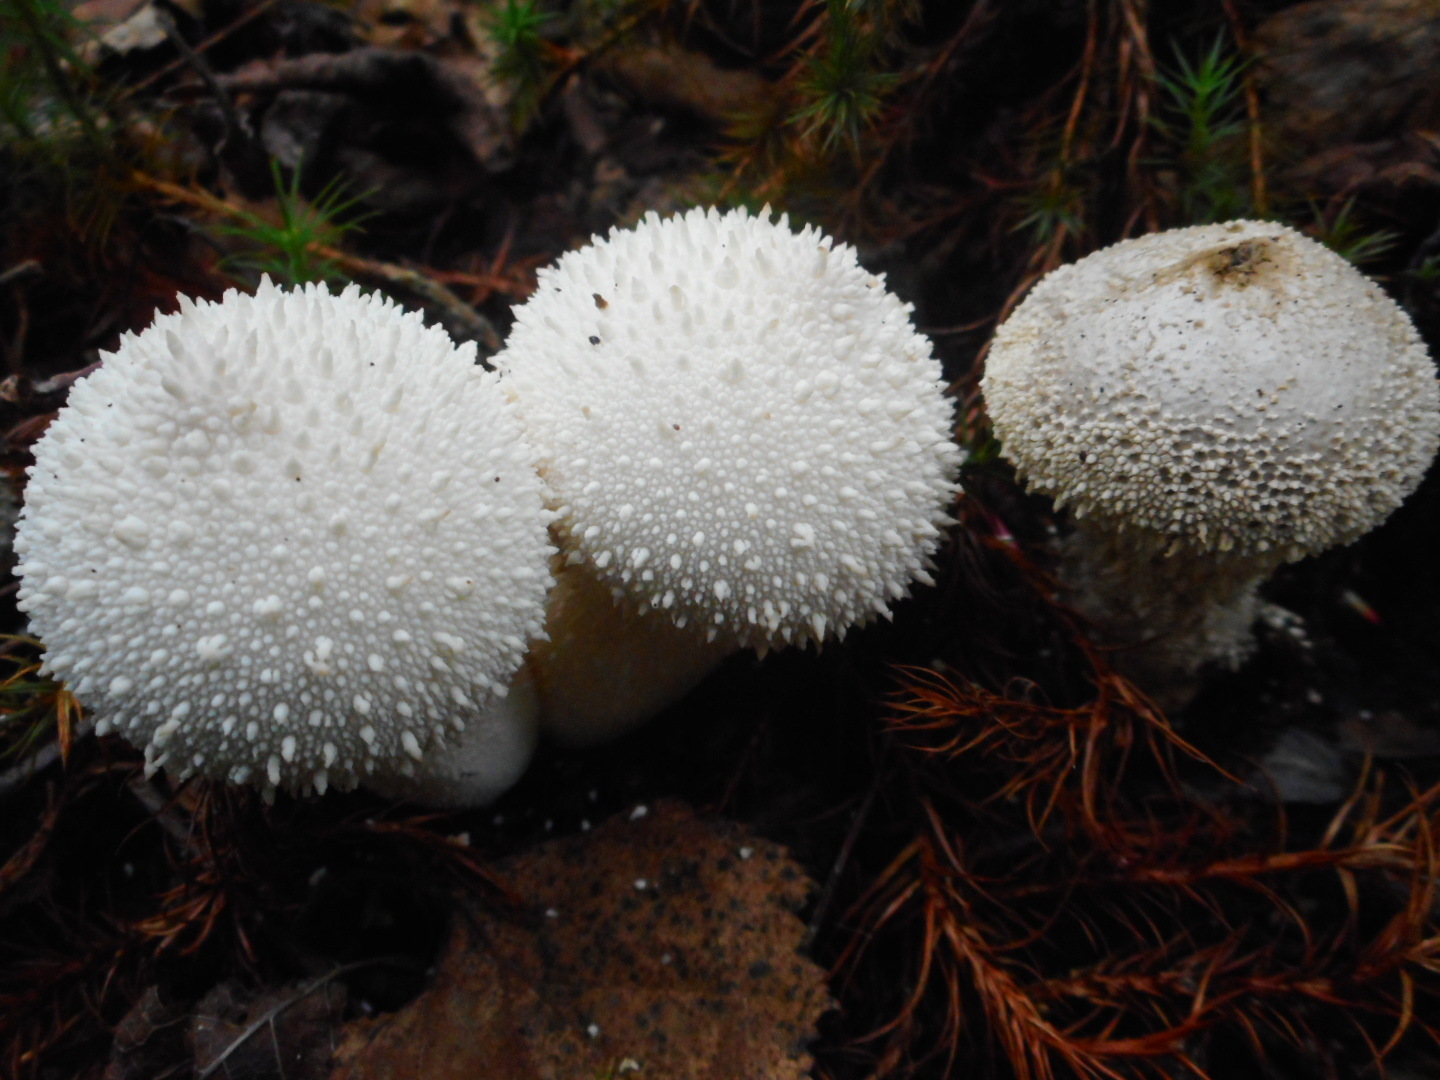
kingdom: Fungi
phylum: Basidiomycota
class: Agaricomycetes
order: Agaricales
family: Lycoperdaceae
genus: Lycoperdon
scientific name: Lycoperdon perlatum
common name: Common puffball
